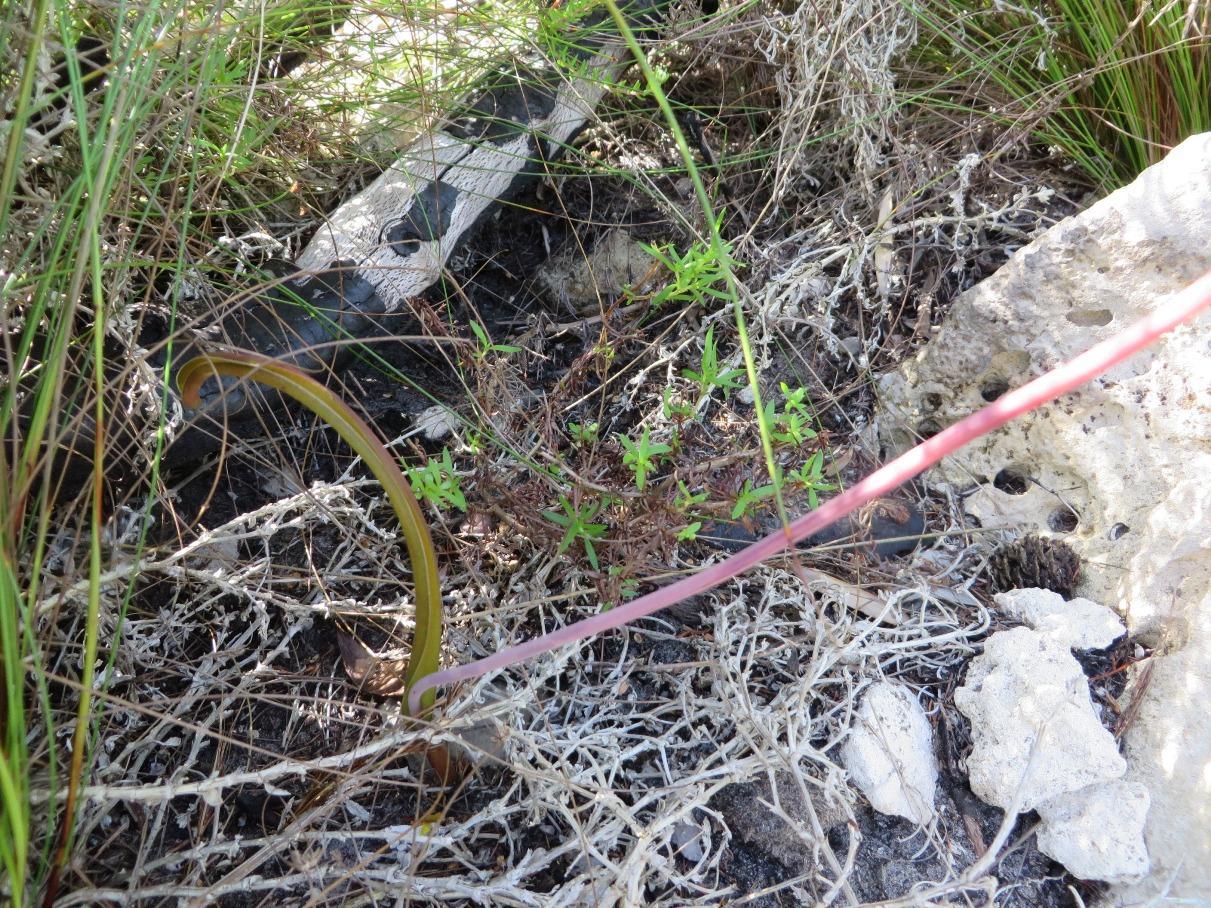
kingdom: Plantae
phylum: Tracheophyta
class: Liliopsida
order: Asparagales
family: Asparagaceae
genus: Lachenalia
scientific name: Lachenalia rosea
